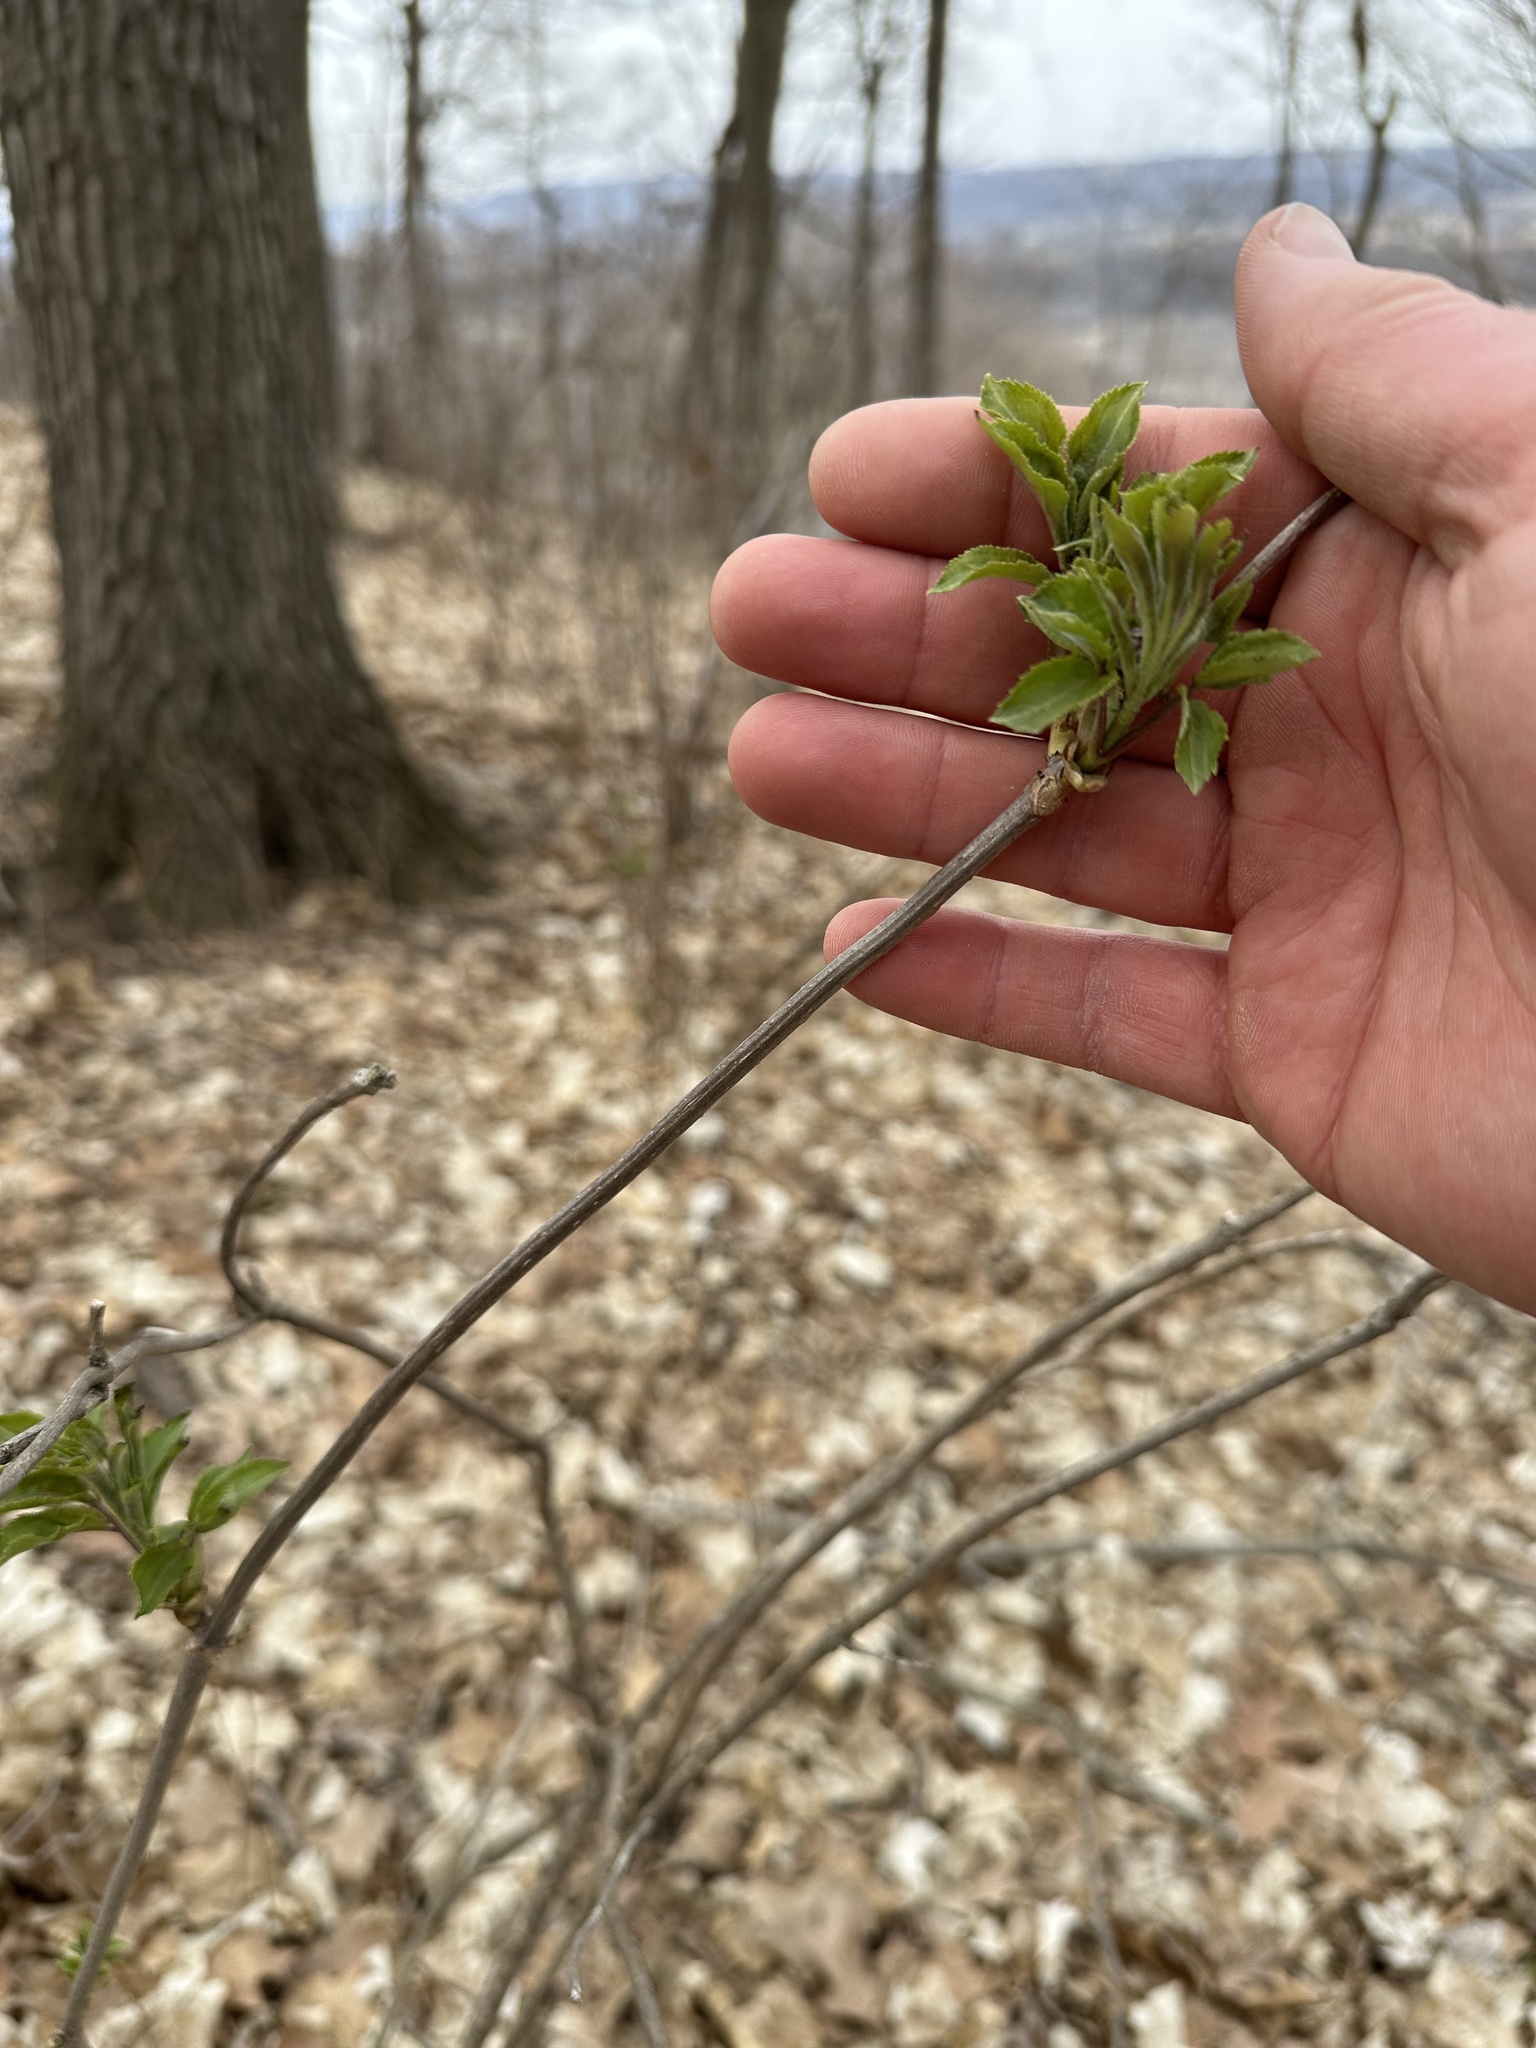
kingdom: Plantae
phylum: Tracheophyta
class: Magnoliopsida
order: Dipsacales
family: Viburnaceae
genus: Sambucus
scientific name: Sambucus racemosa
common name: Red-berried elder
